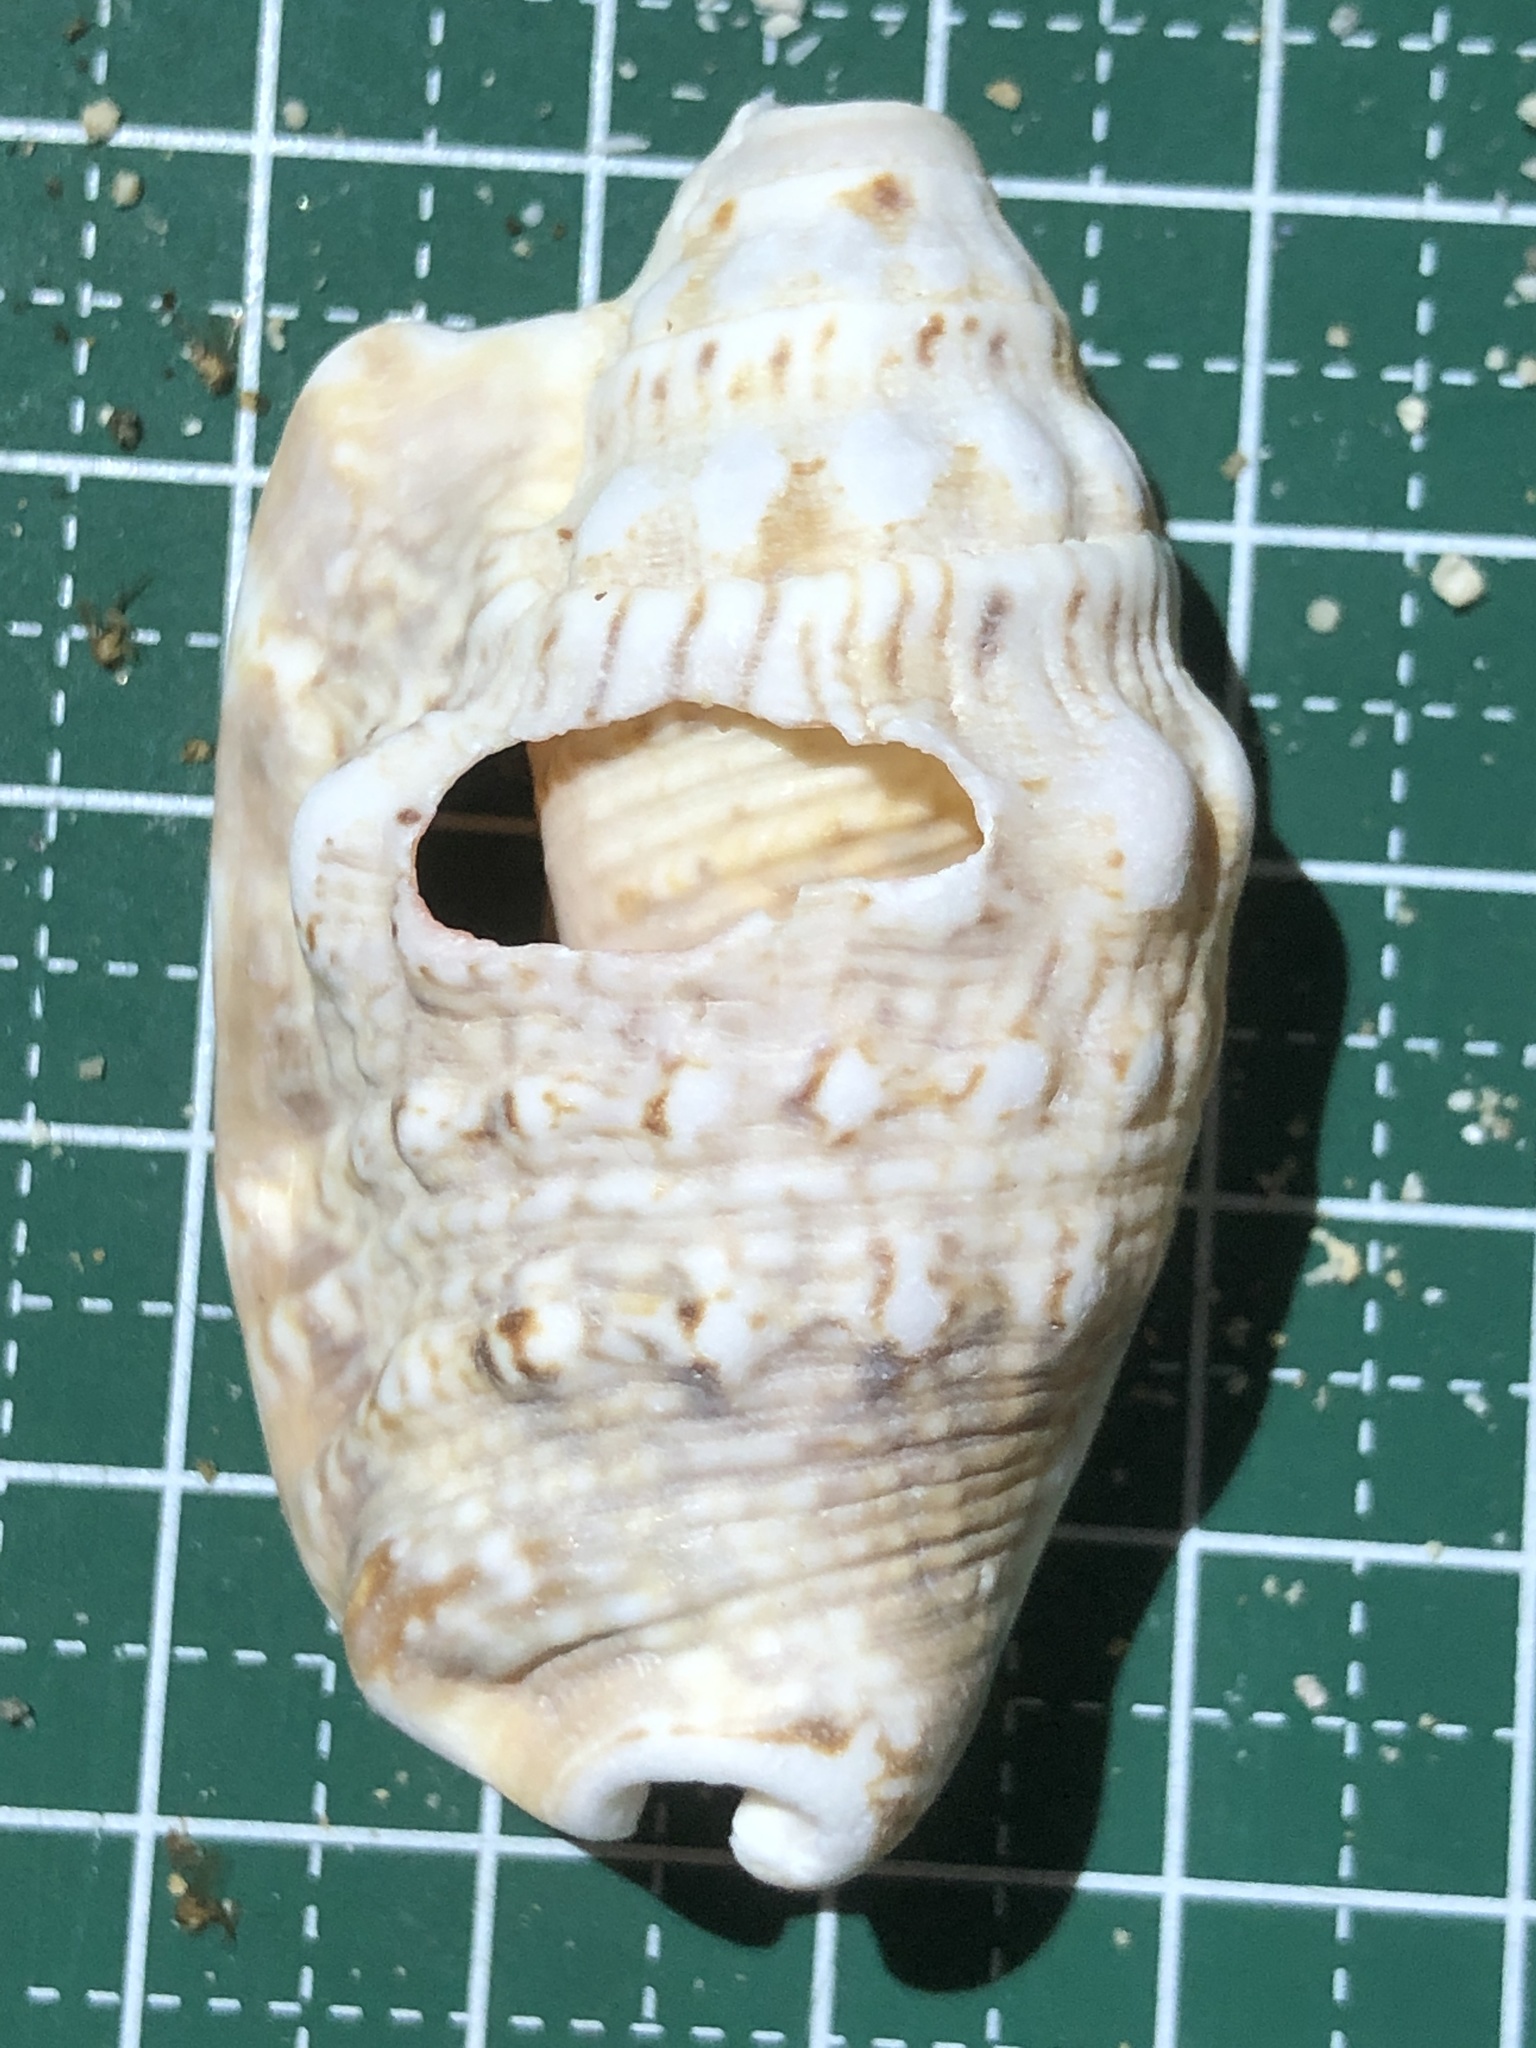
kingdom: Animalia
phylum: Mollusca
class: Gastropoda
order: Littorinimorpha
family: Strombidae
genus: Euprotomus
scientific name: Euprotomus aurisdianae
